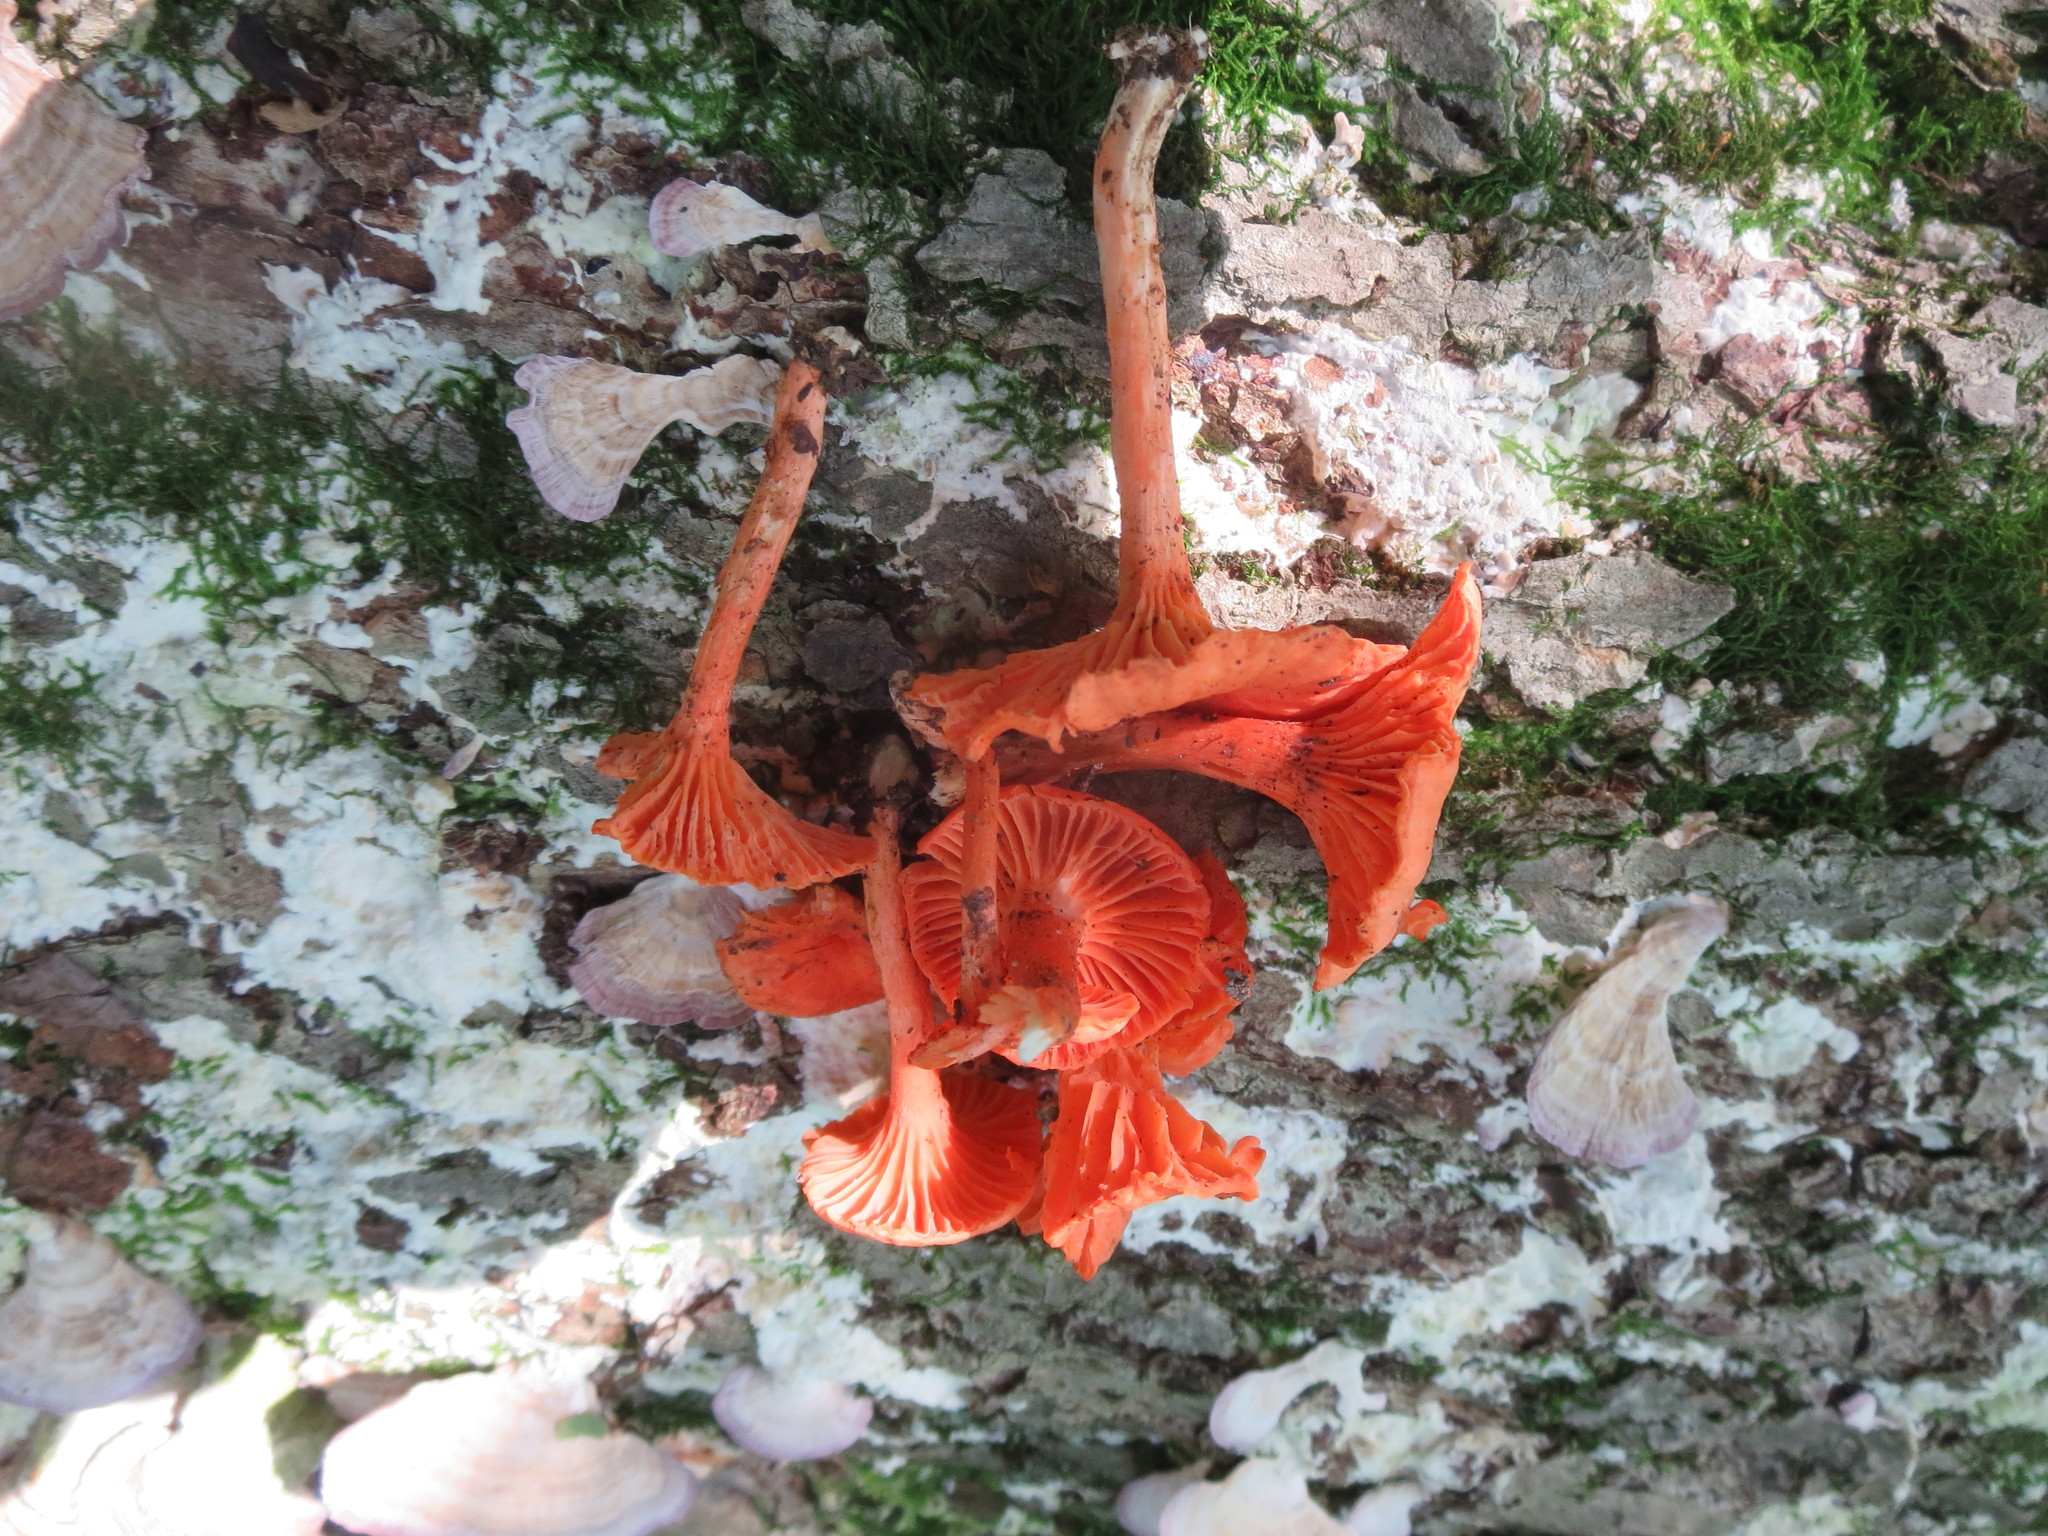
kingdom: Fungi
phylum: Basidiomycota
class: Agaricomycetes
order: Cantharellales
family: Hydnaceae
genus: Cantharellus
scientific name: Cantharellus cinnabarinus
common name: Cinnabar chanterelle
